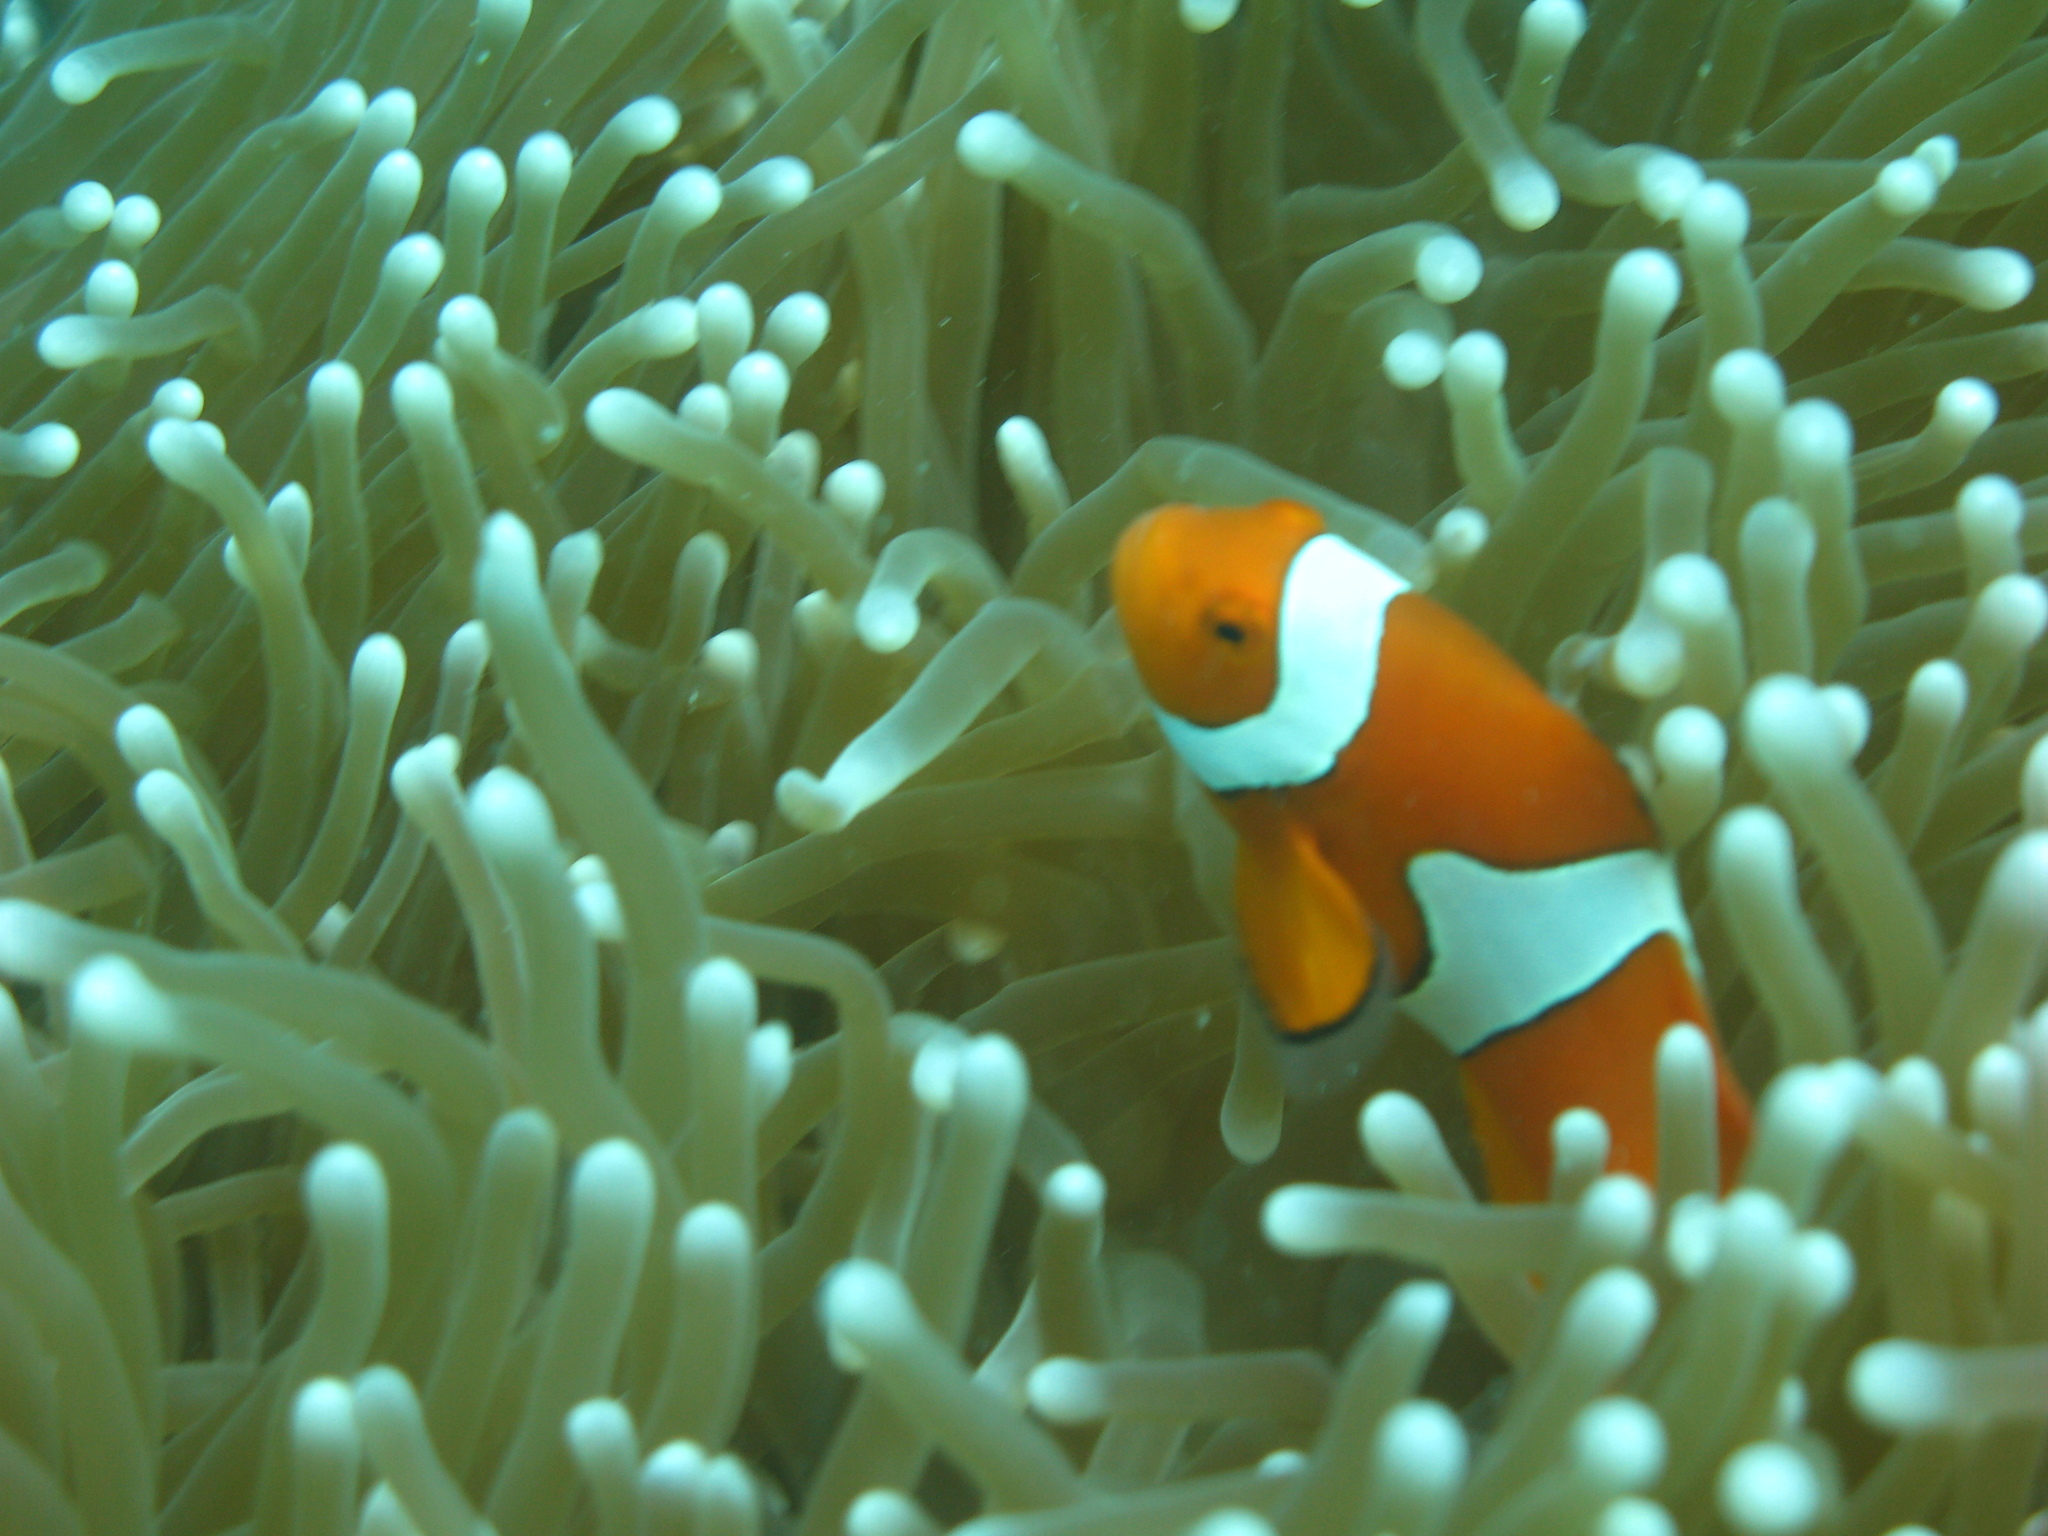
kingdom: Animalia
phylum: Chordata
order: Perciformes
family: Pomacentridae
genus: Amphiprion
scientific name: Amphiprion percula
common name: Clown anemonefish
